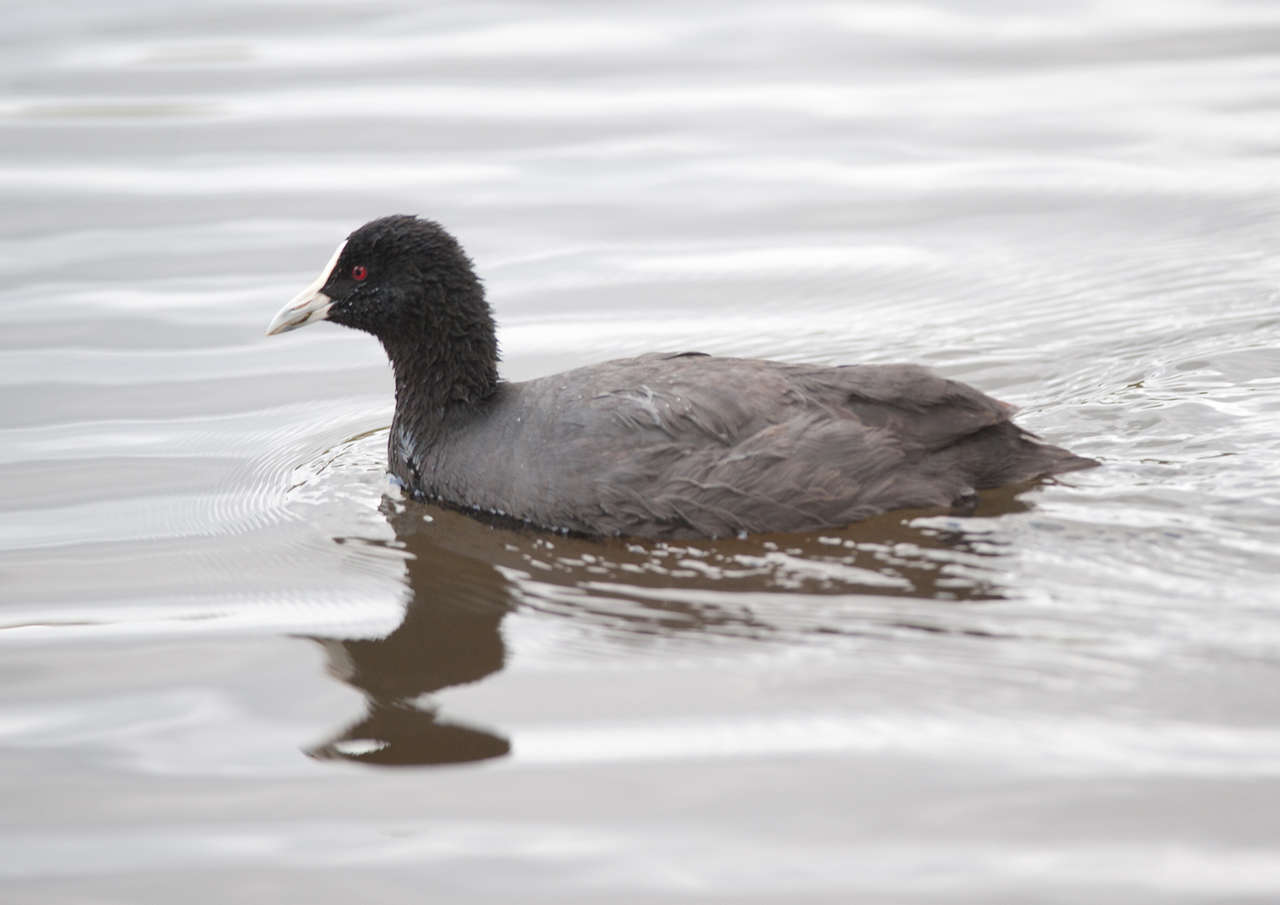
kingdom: Animalia
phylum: Chordata
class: Aves
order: Gruiformes
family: Rallidae
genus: Fulica
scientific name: Fulica atra
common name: Eurasian coot
